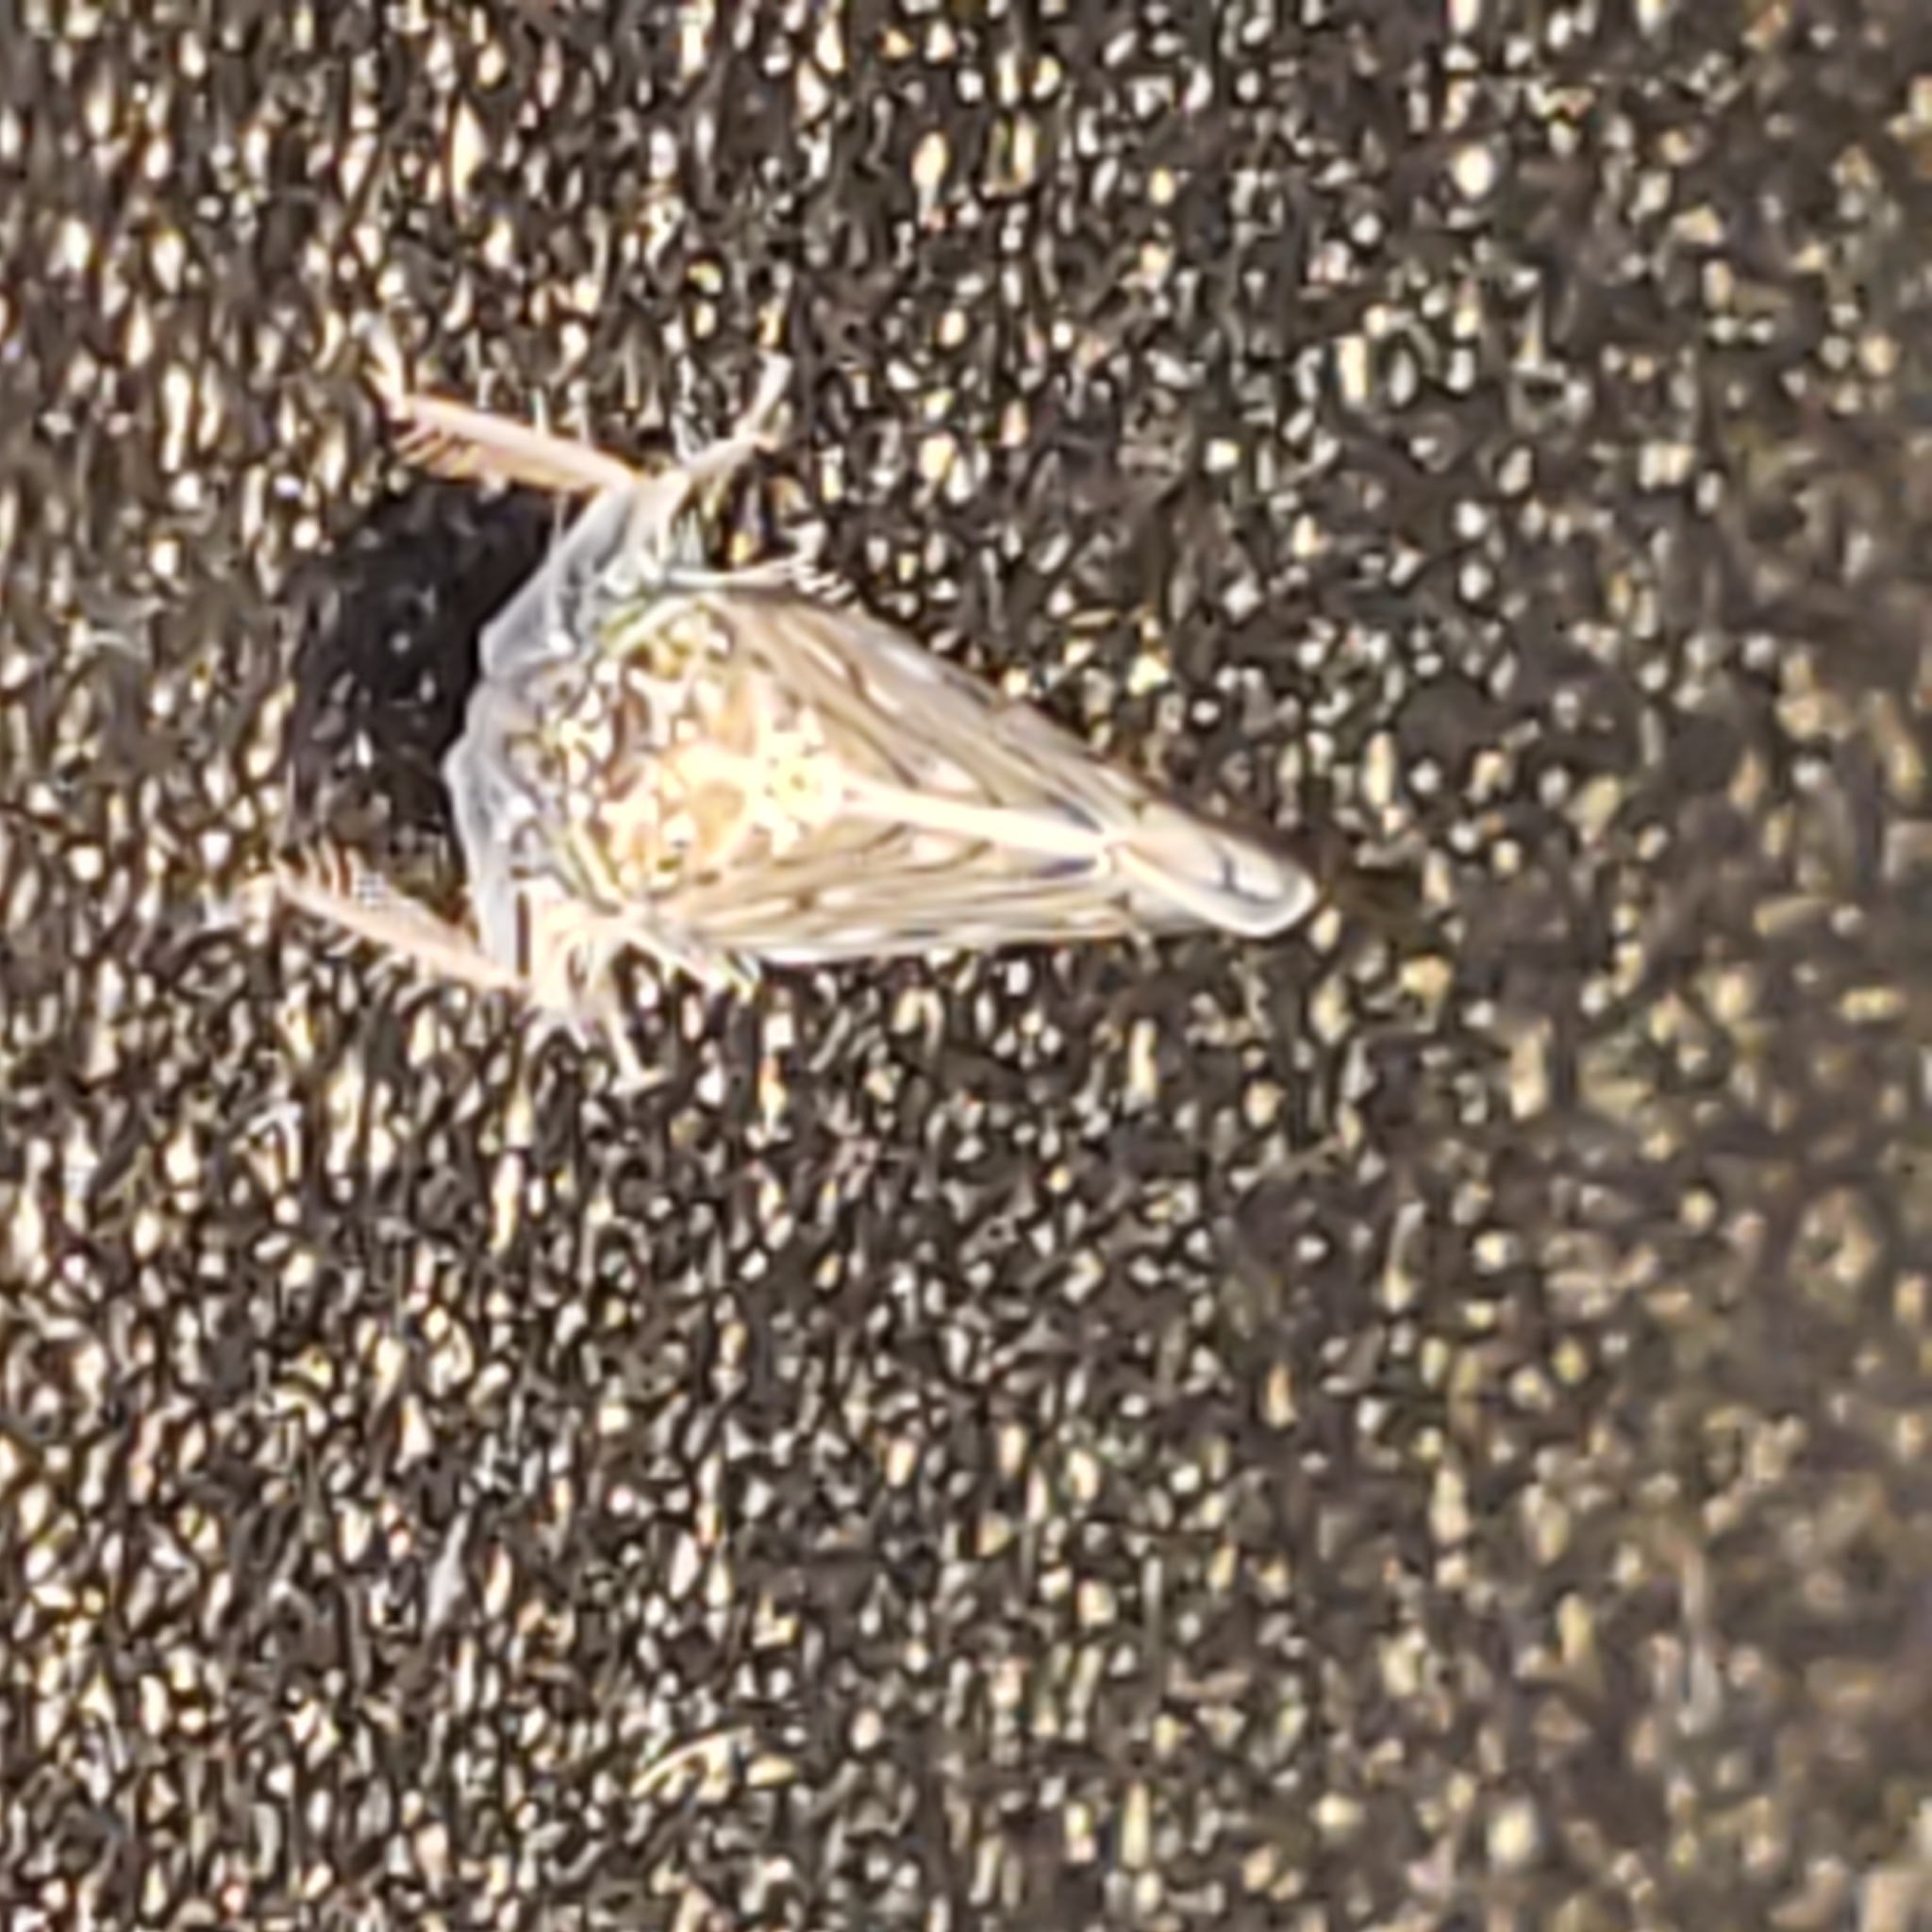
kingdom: Animalia
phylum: Arthropoda
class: Insecta
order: Diptera
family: Rhagionidae
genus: Chrysopilus
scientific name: Chrysopilus modestus
